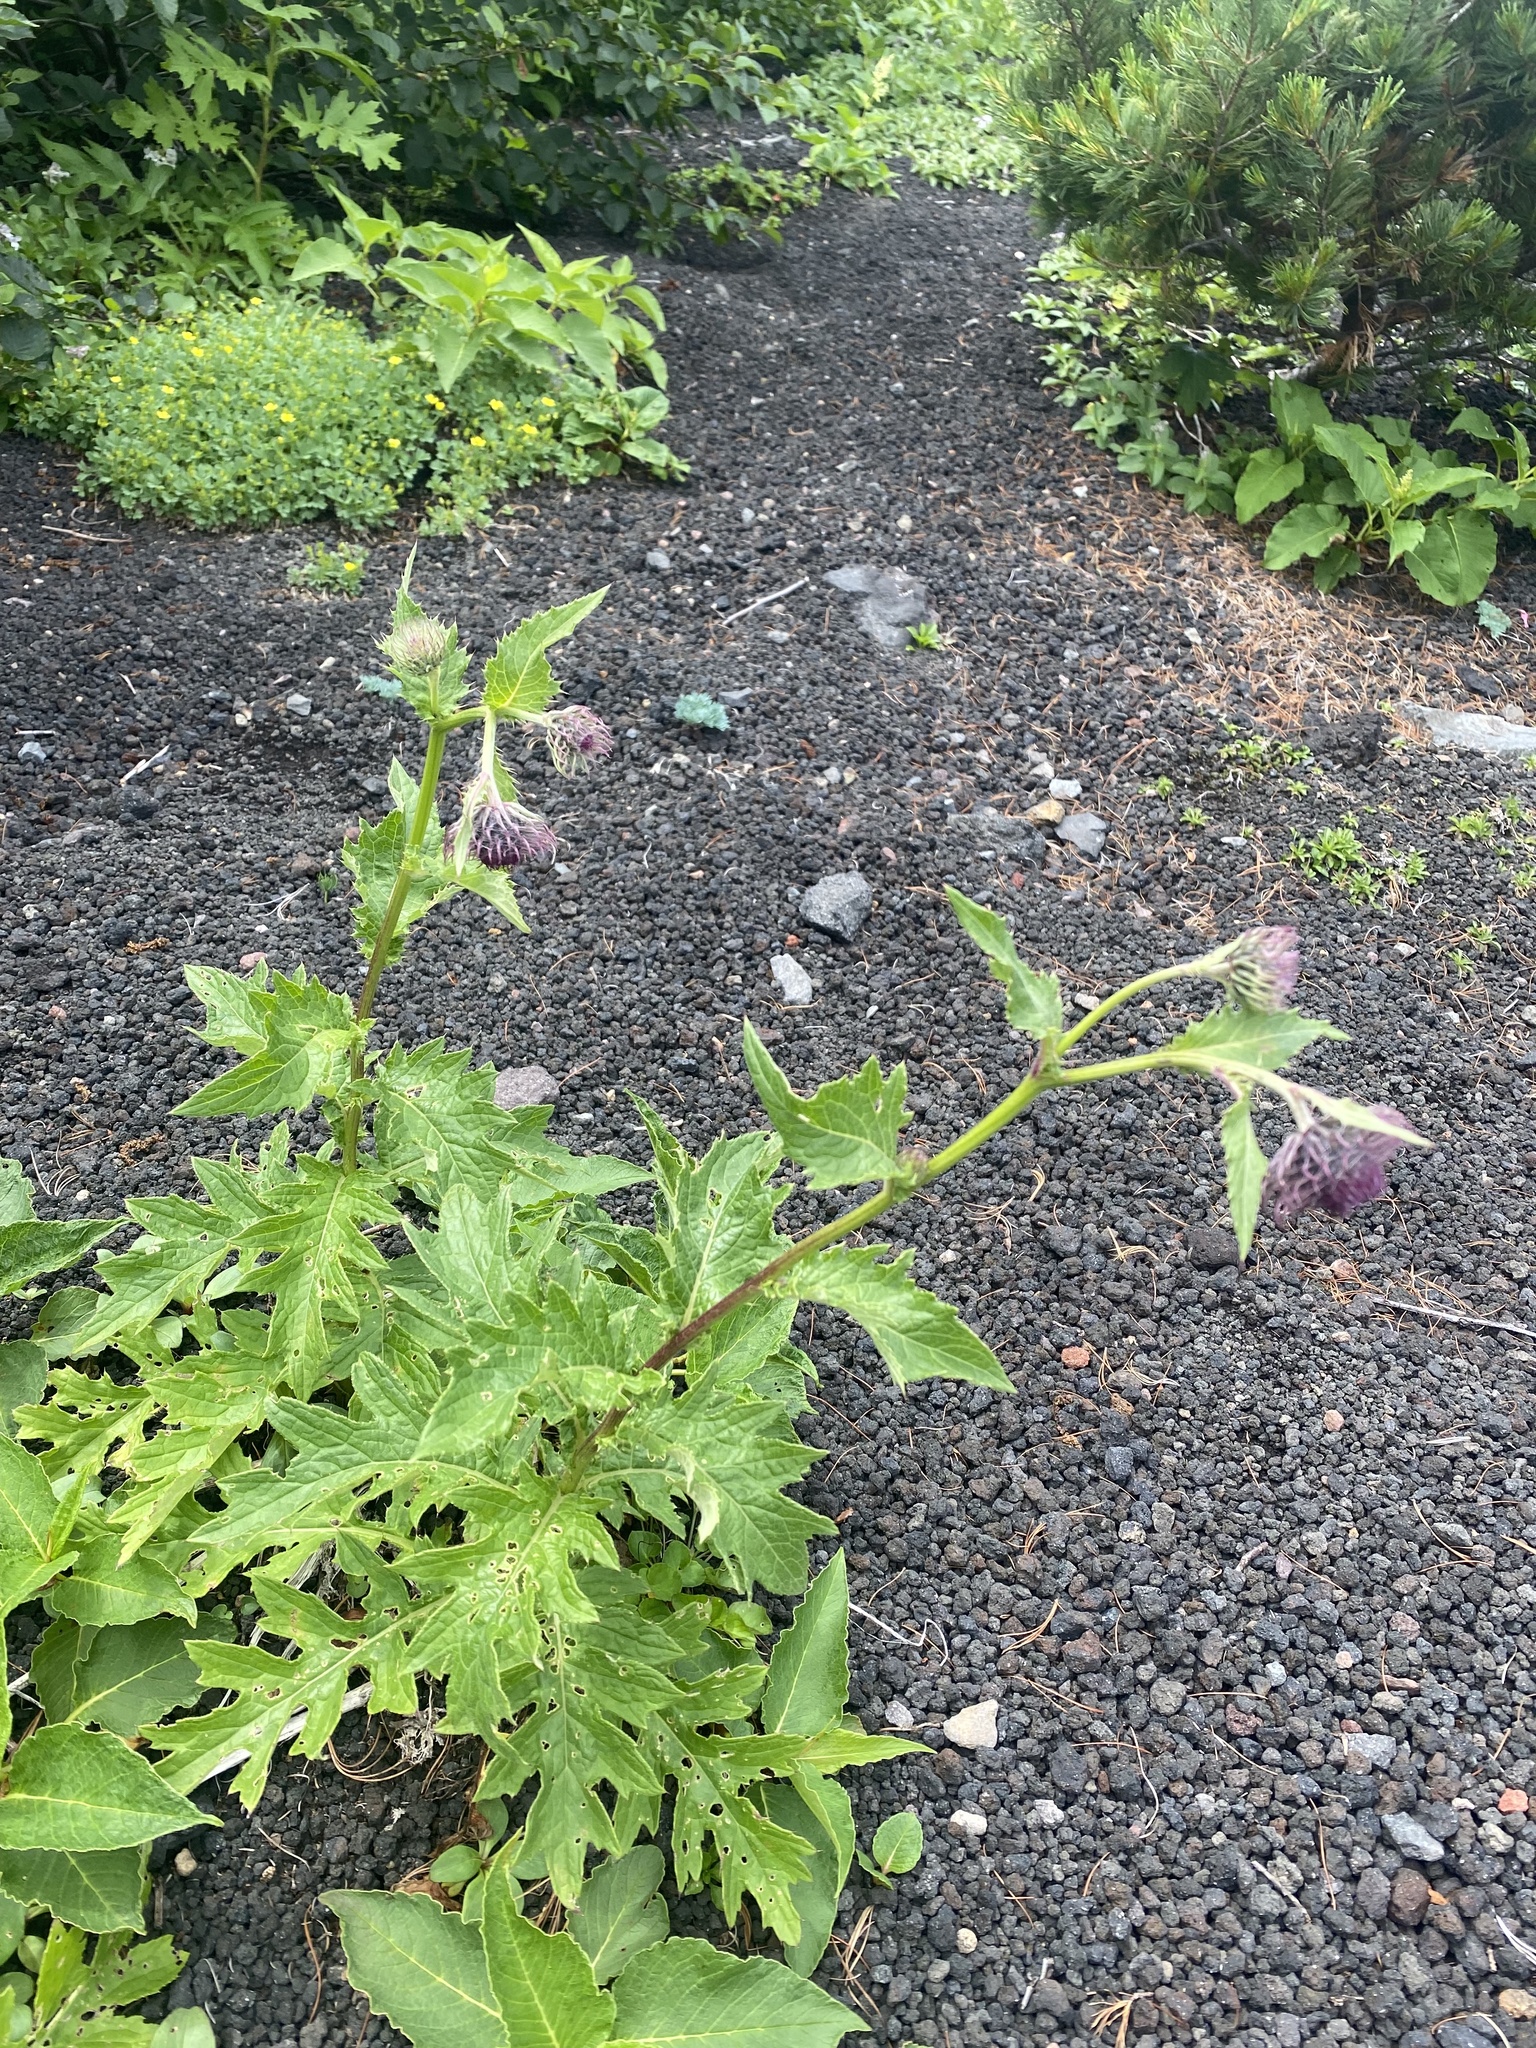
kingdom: Plantae
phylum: Tracheophyta
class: Magnoliopsida
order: Asterales
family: Asteraceae
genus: Cirsium
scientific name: Cirsium kamtschaticum
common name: Kamchatka thistle
